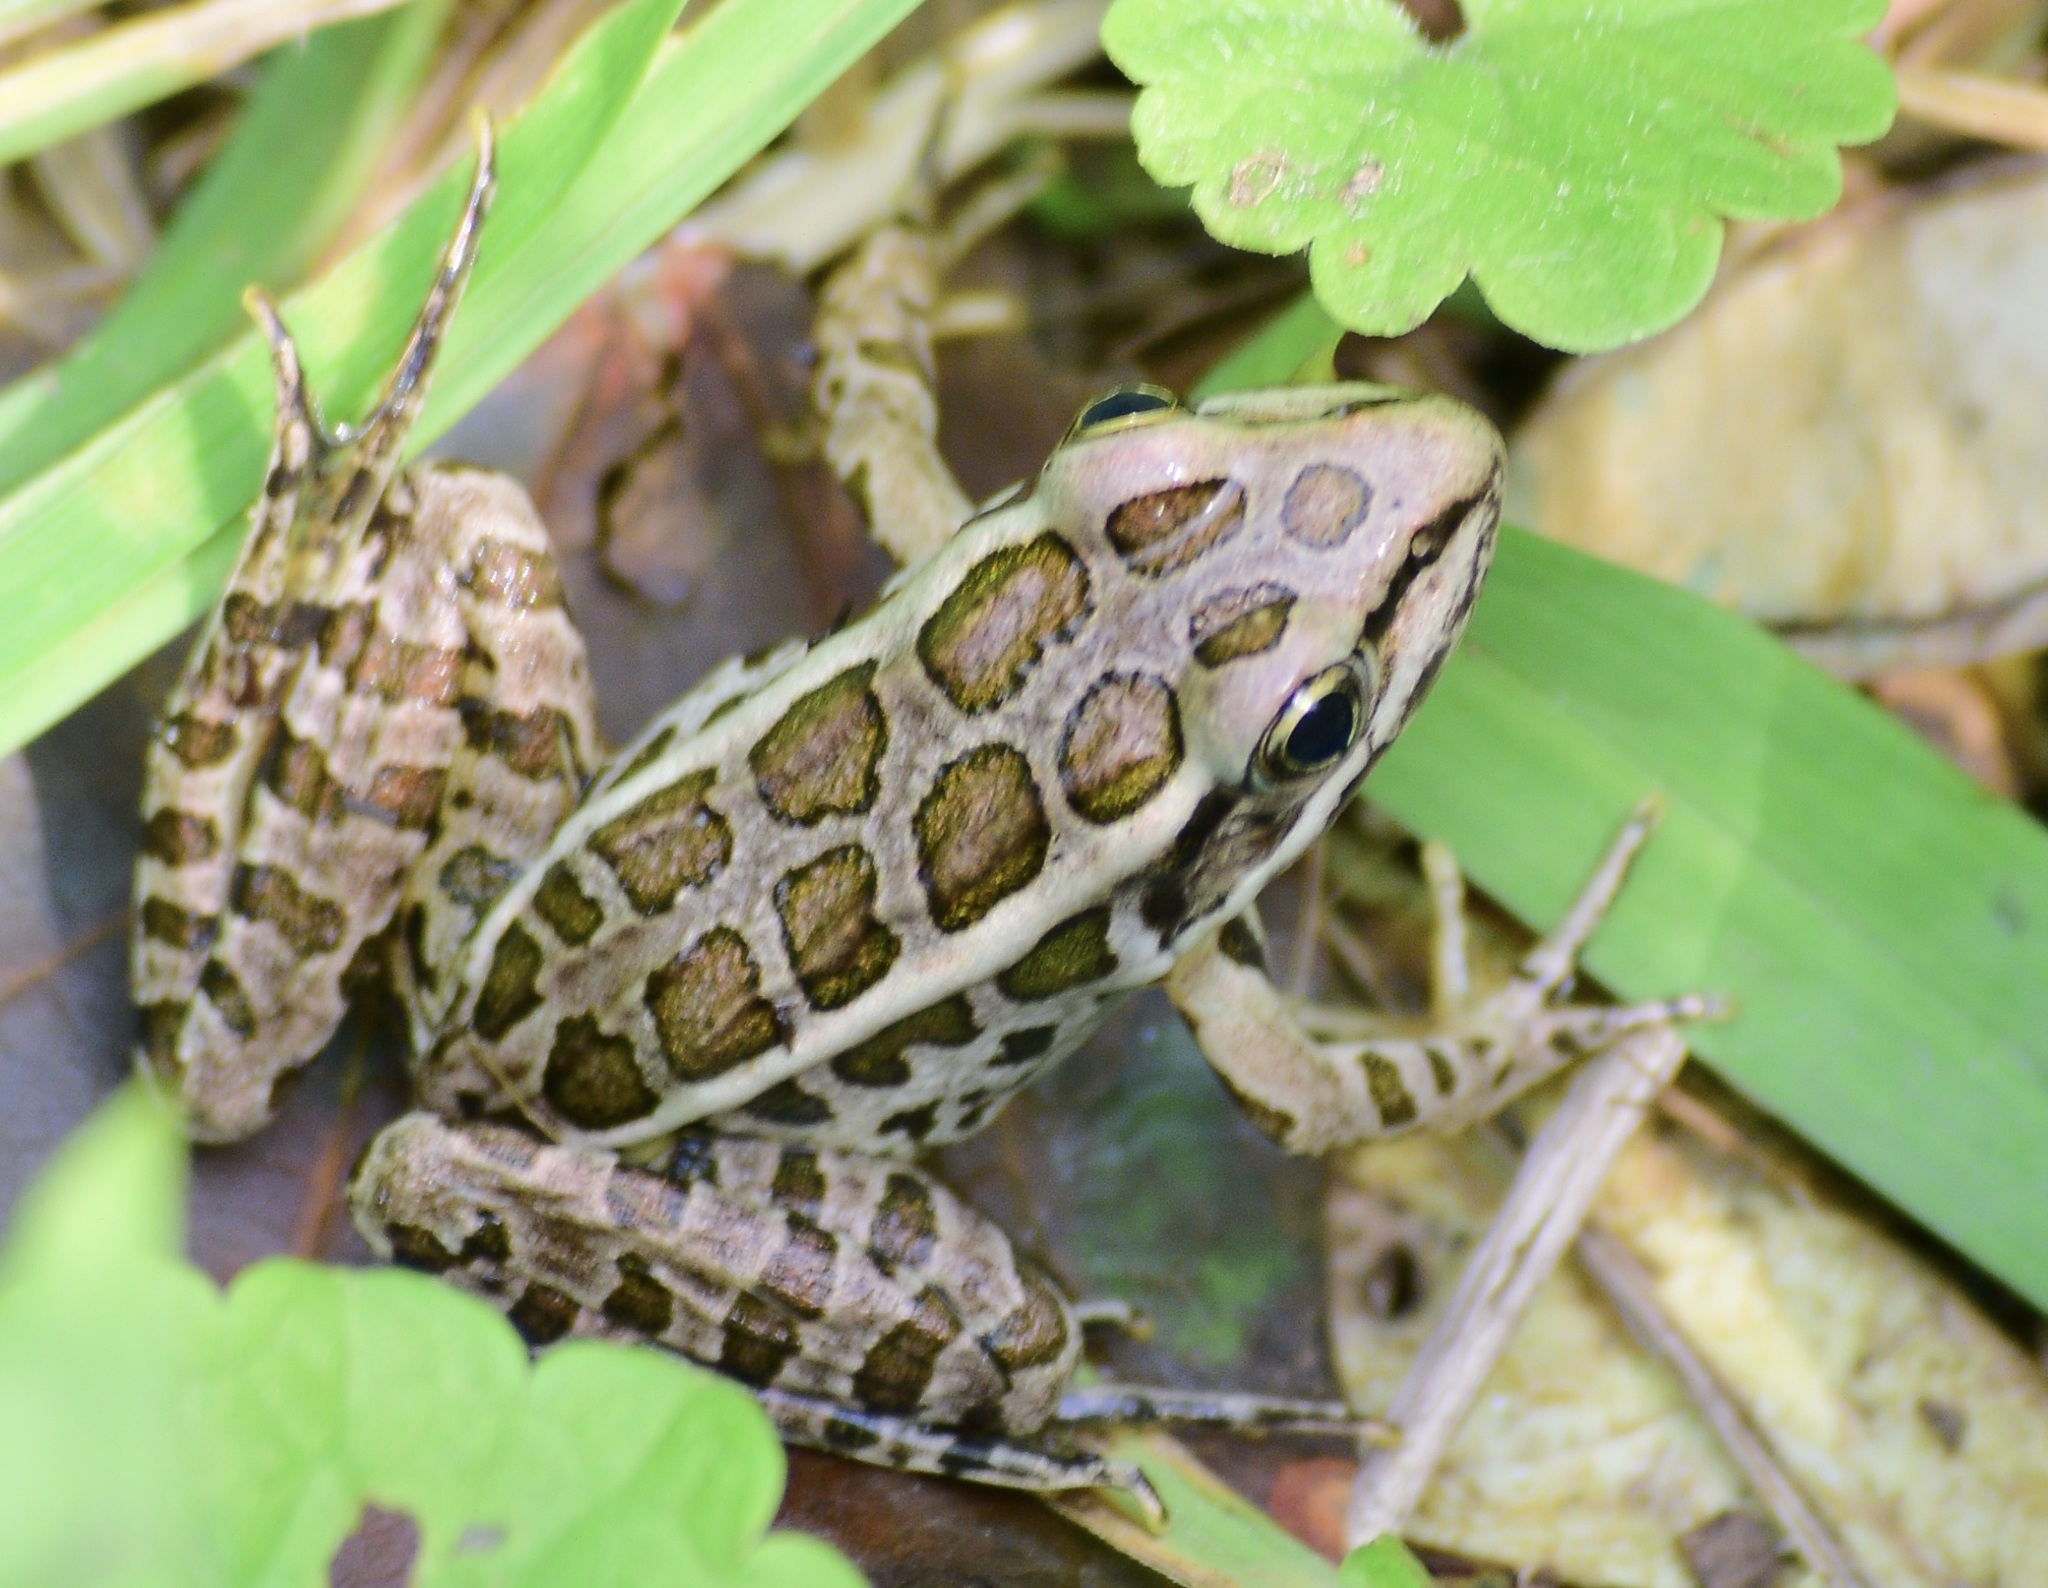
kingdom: Animalia
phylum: Chordata
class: Amphibia
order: Anura
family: Ranidae
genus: Lithobates
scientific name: Lithobates palustris
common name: Pickerel frog
